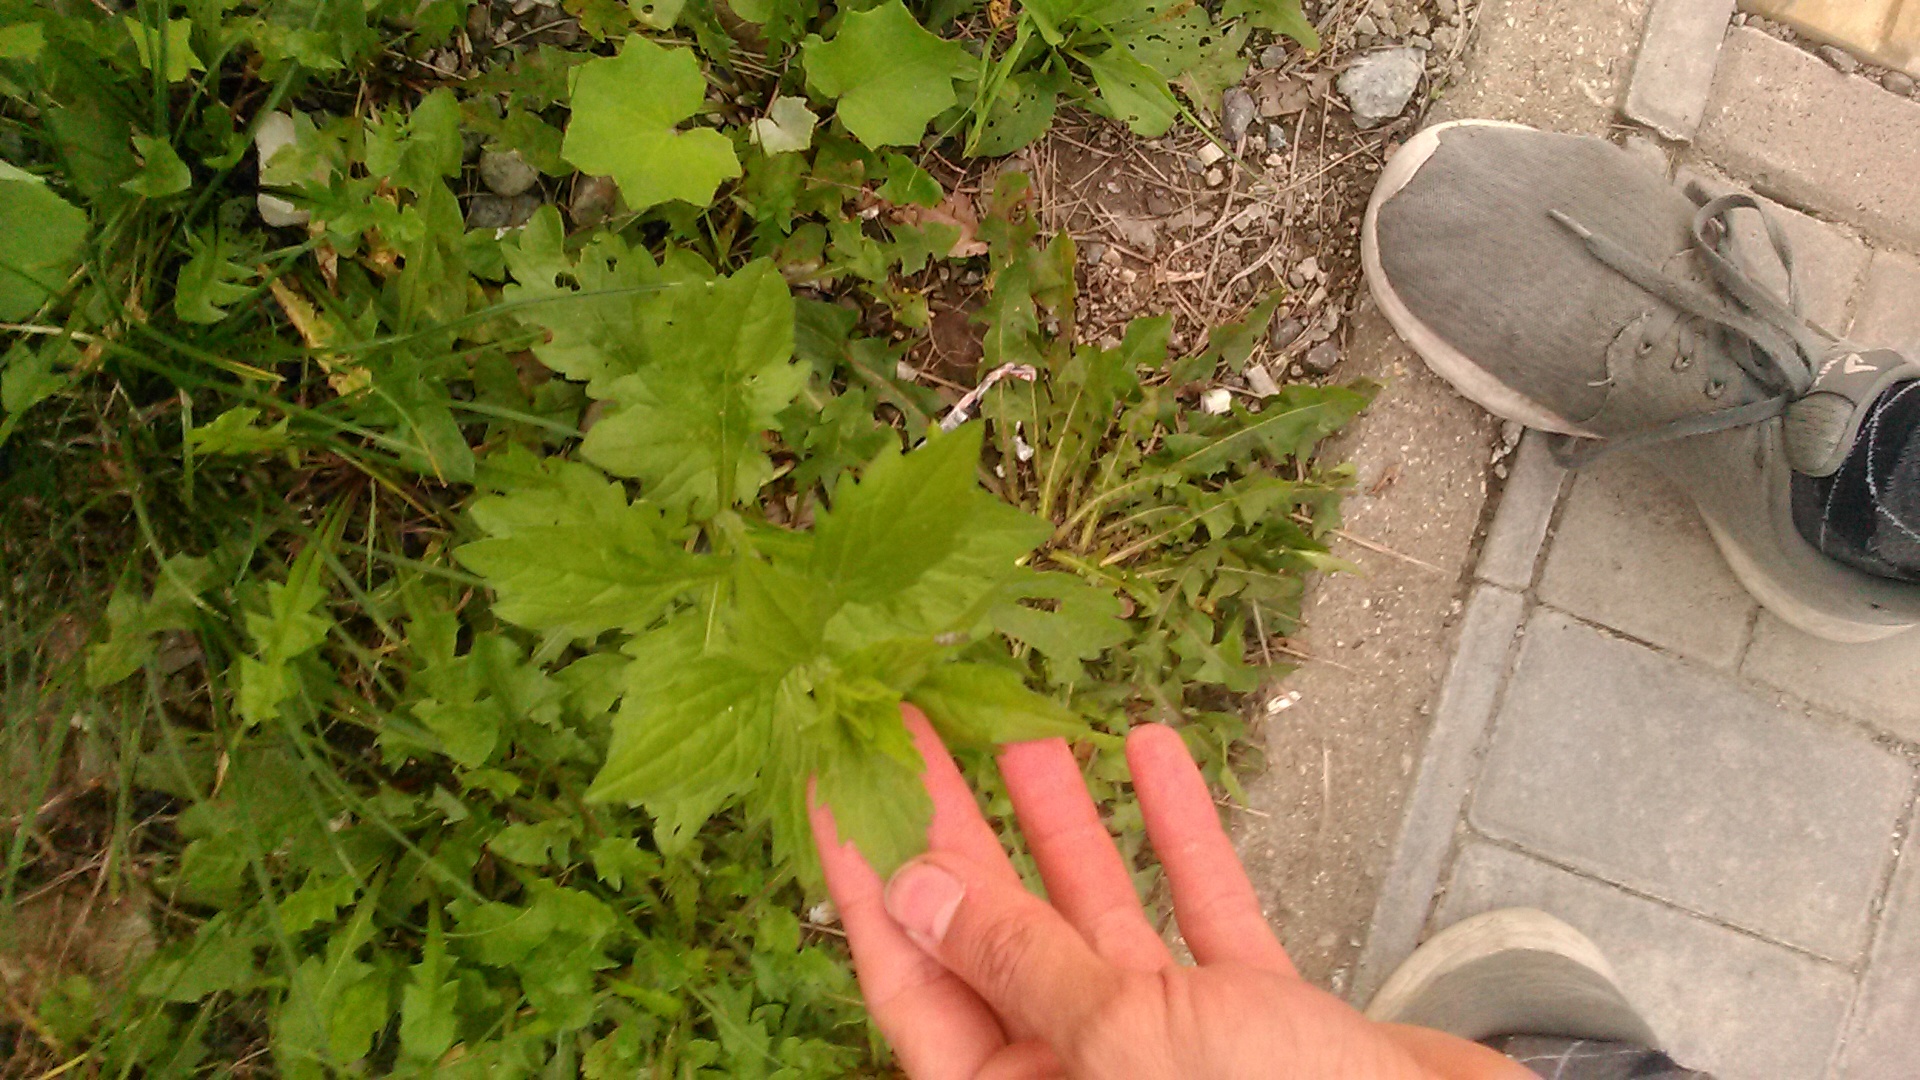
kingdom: Plantae
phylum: Tracheophyta
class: Magnoliopsida
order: Asterales
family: Asteraceae
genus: Erigeron
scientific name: Erigeron annuus
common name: Tall fleabane
